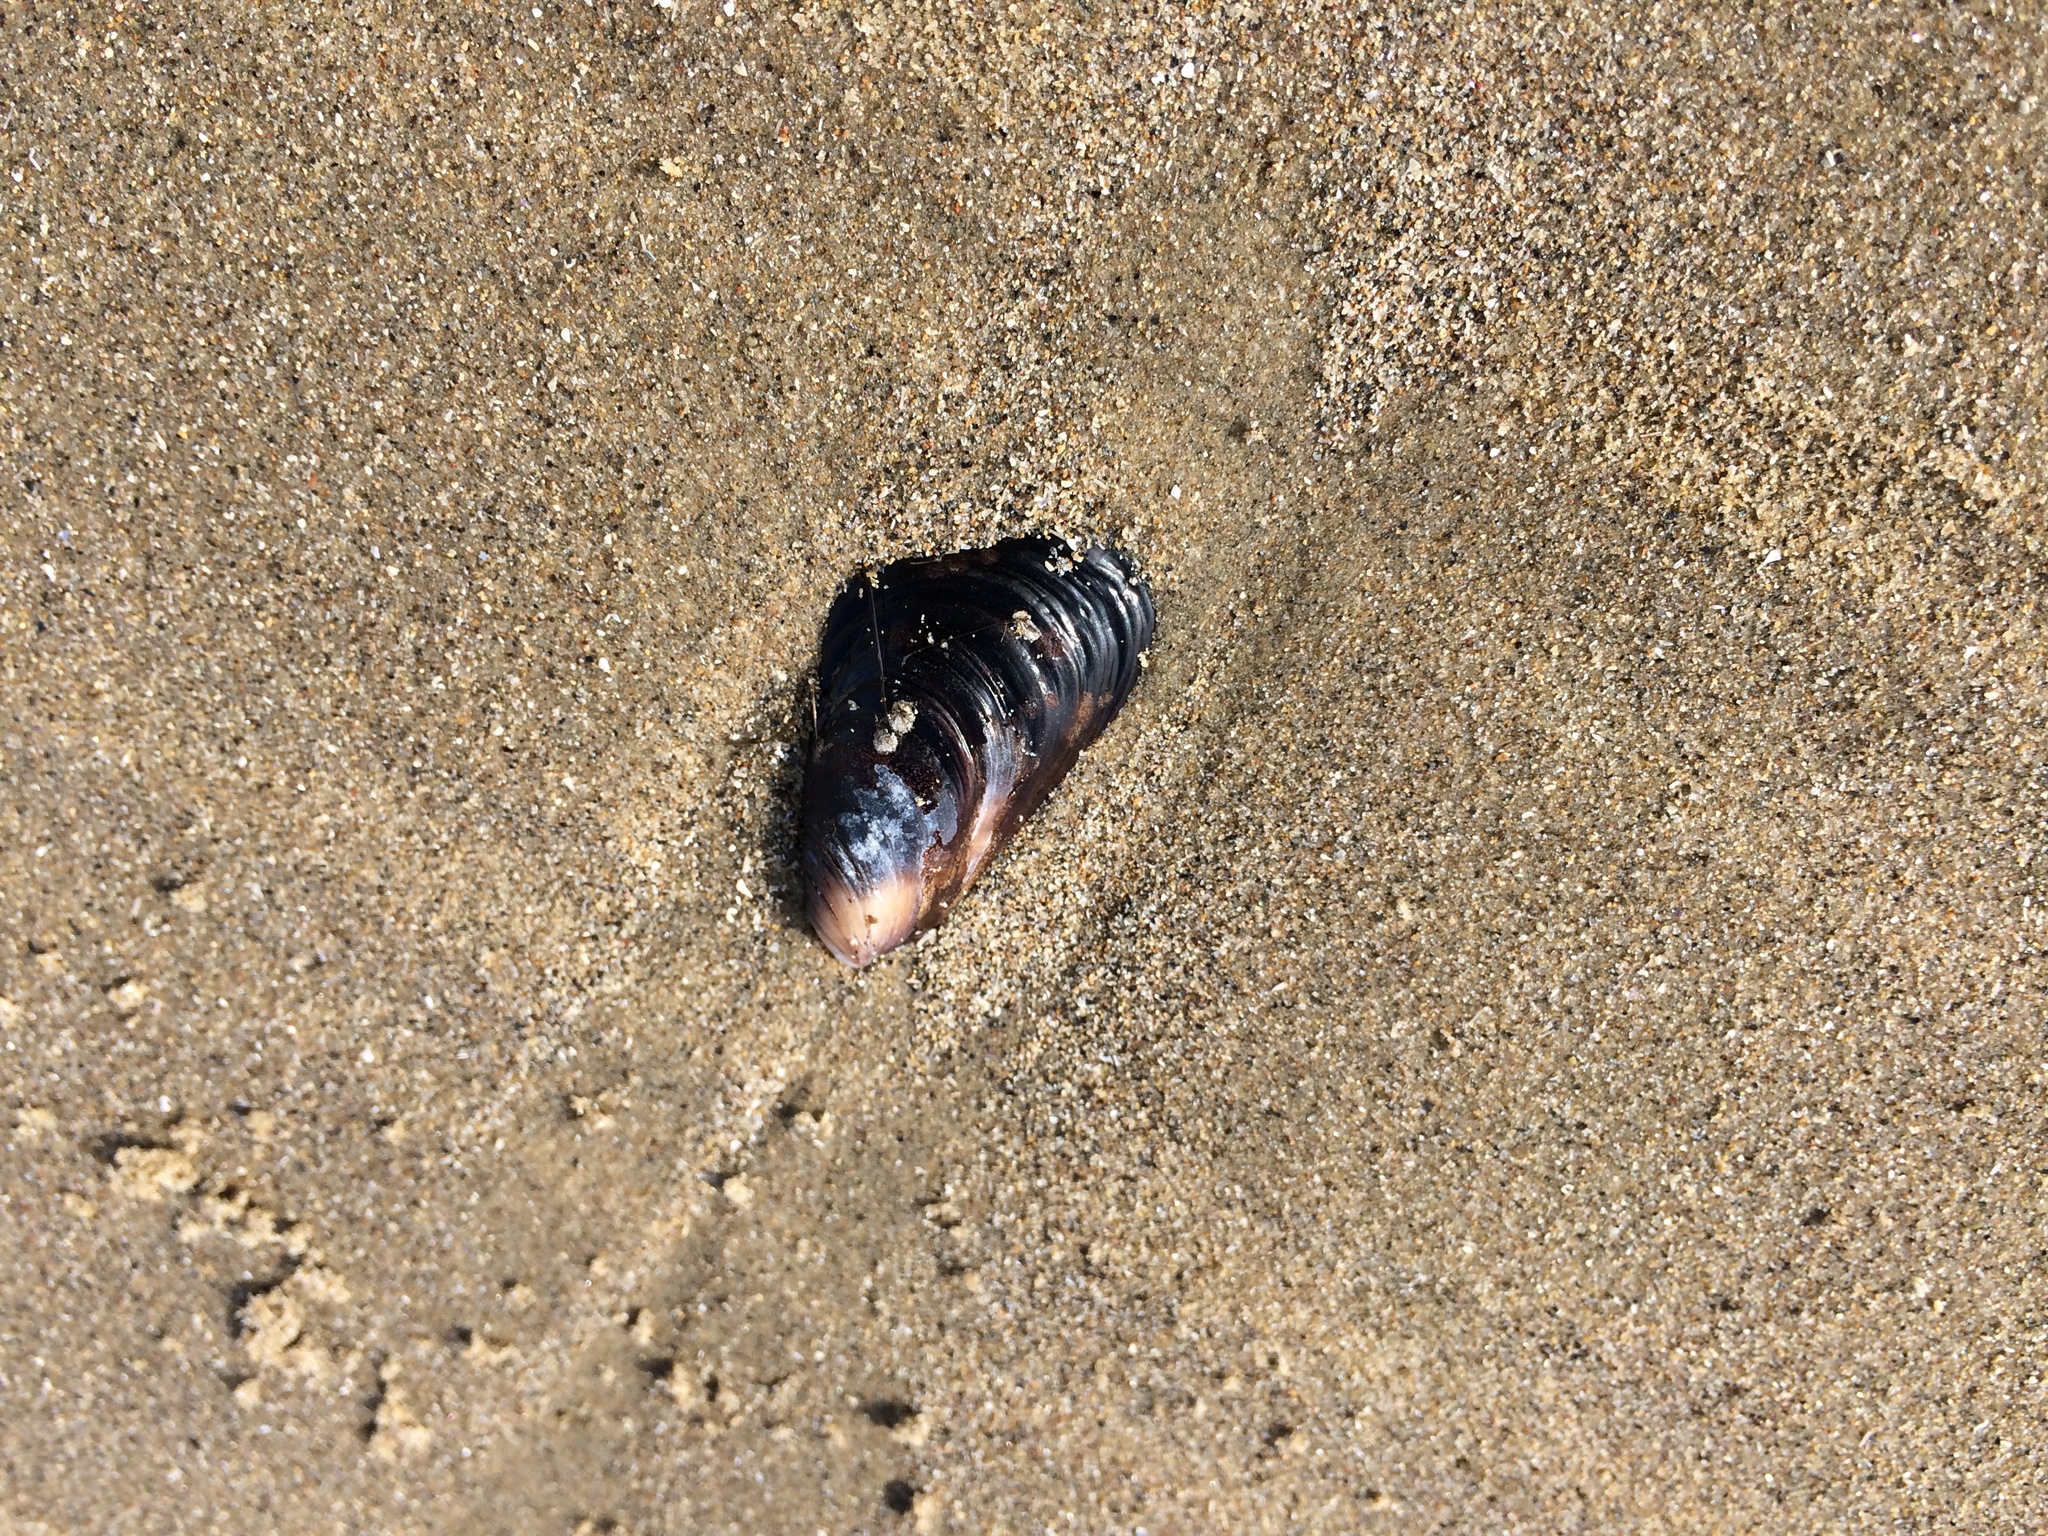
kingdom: Animalia
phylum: Mollusca
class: Bivalvia
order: Mytilida
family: Mytilidae
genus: Mytilus
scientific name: Mytilus californianus
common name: California mussel
